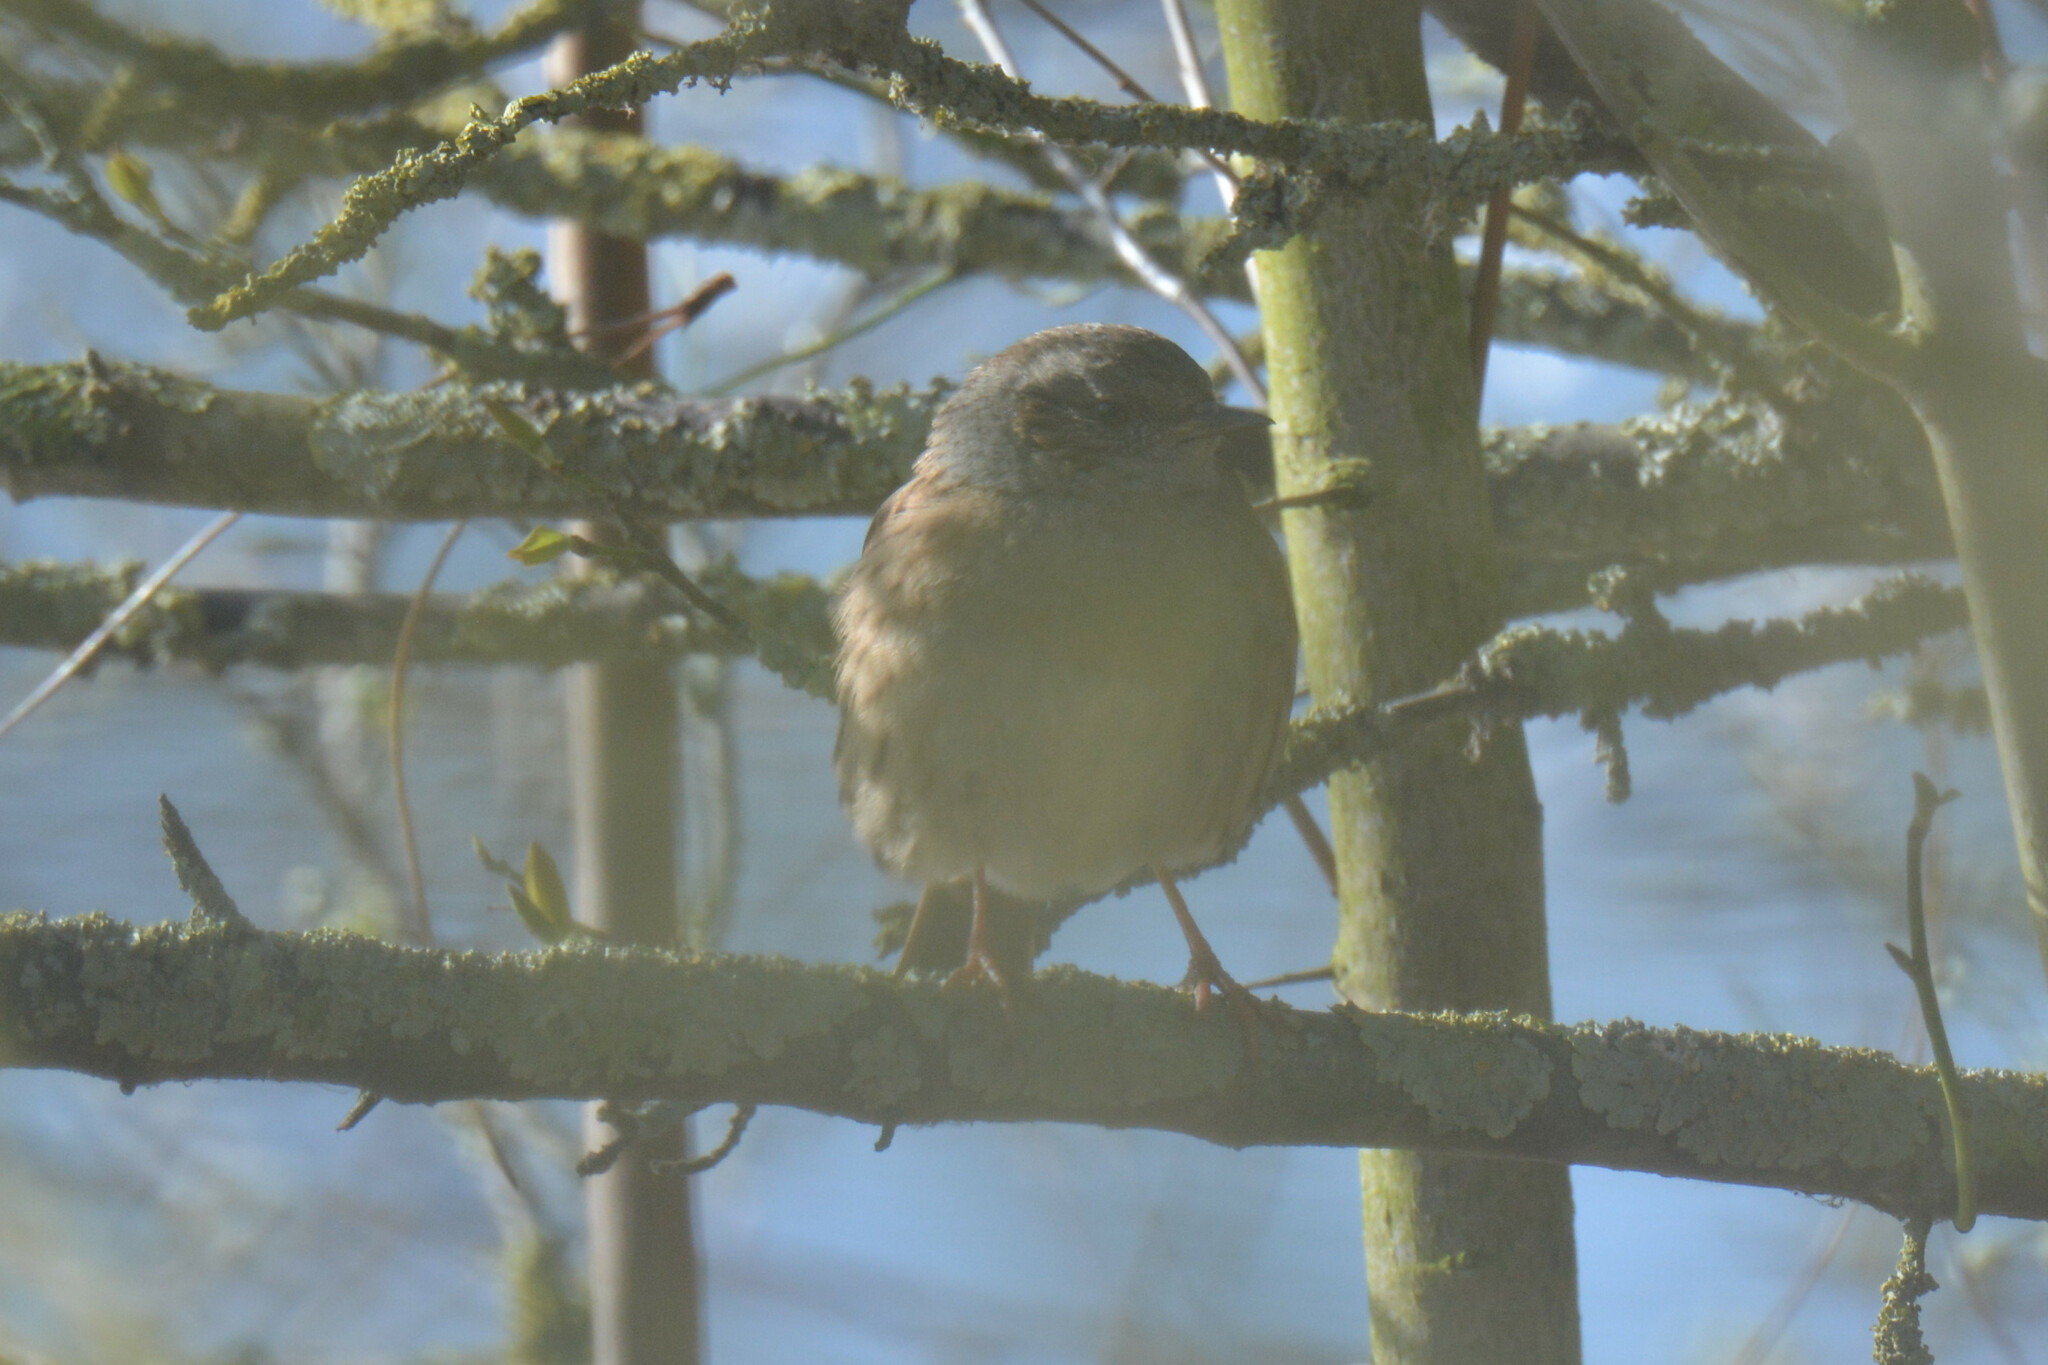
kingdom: Animalia
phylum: Chordata
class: Aves
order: Passeriformes
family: Prunellidae
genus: Prunella
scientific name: Prunella modularis
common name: Dunnock
